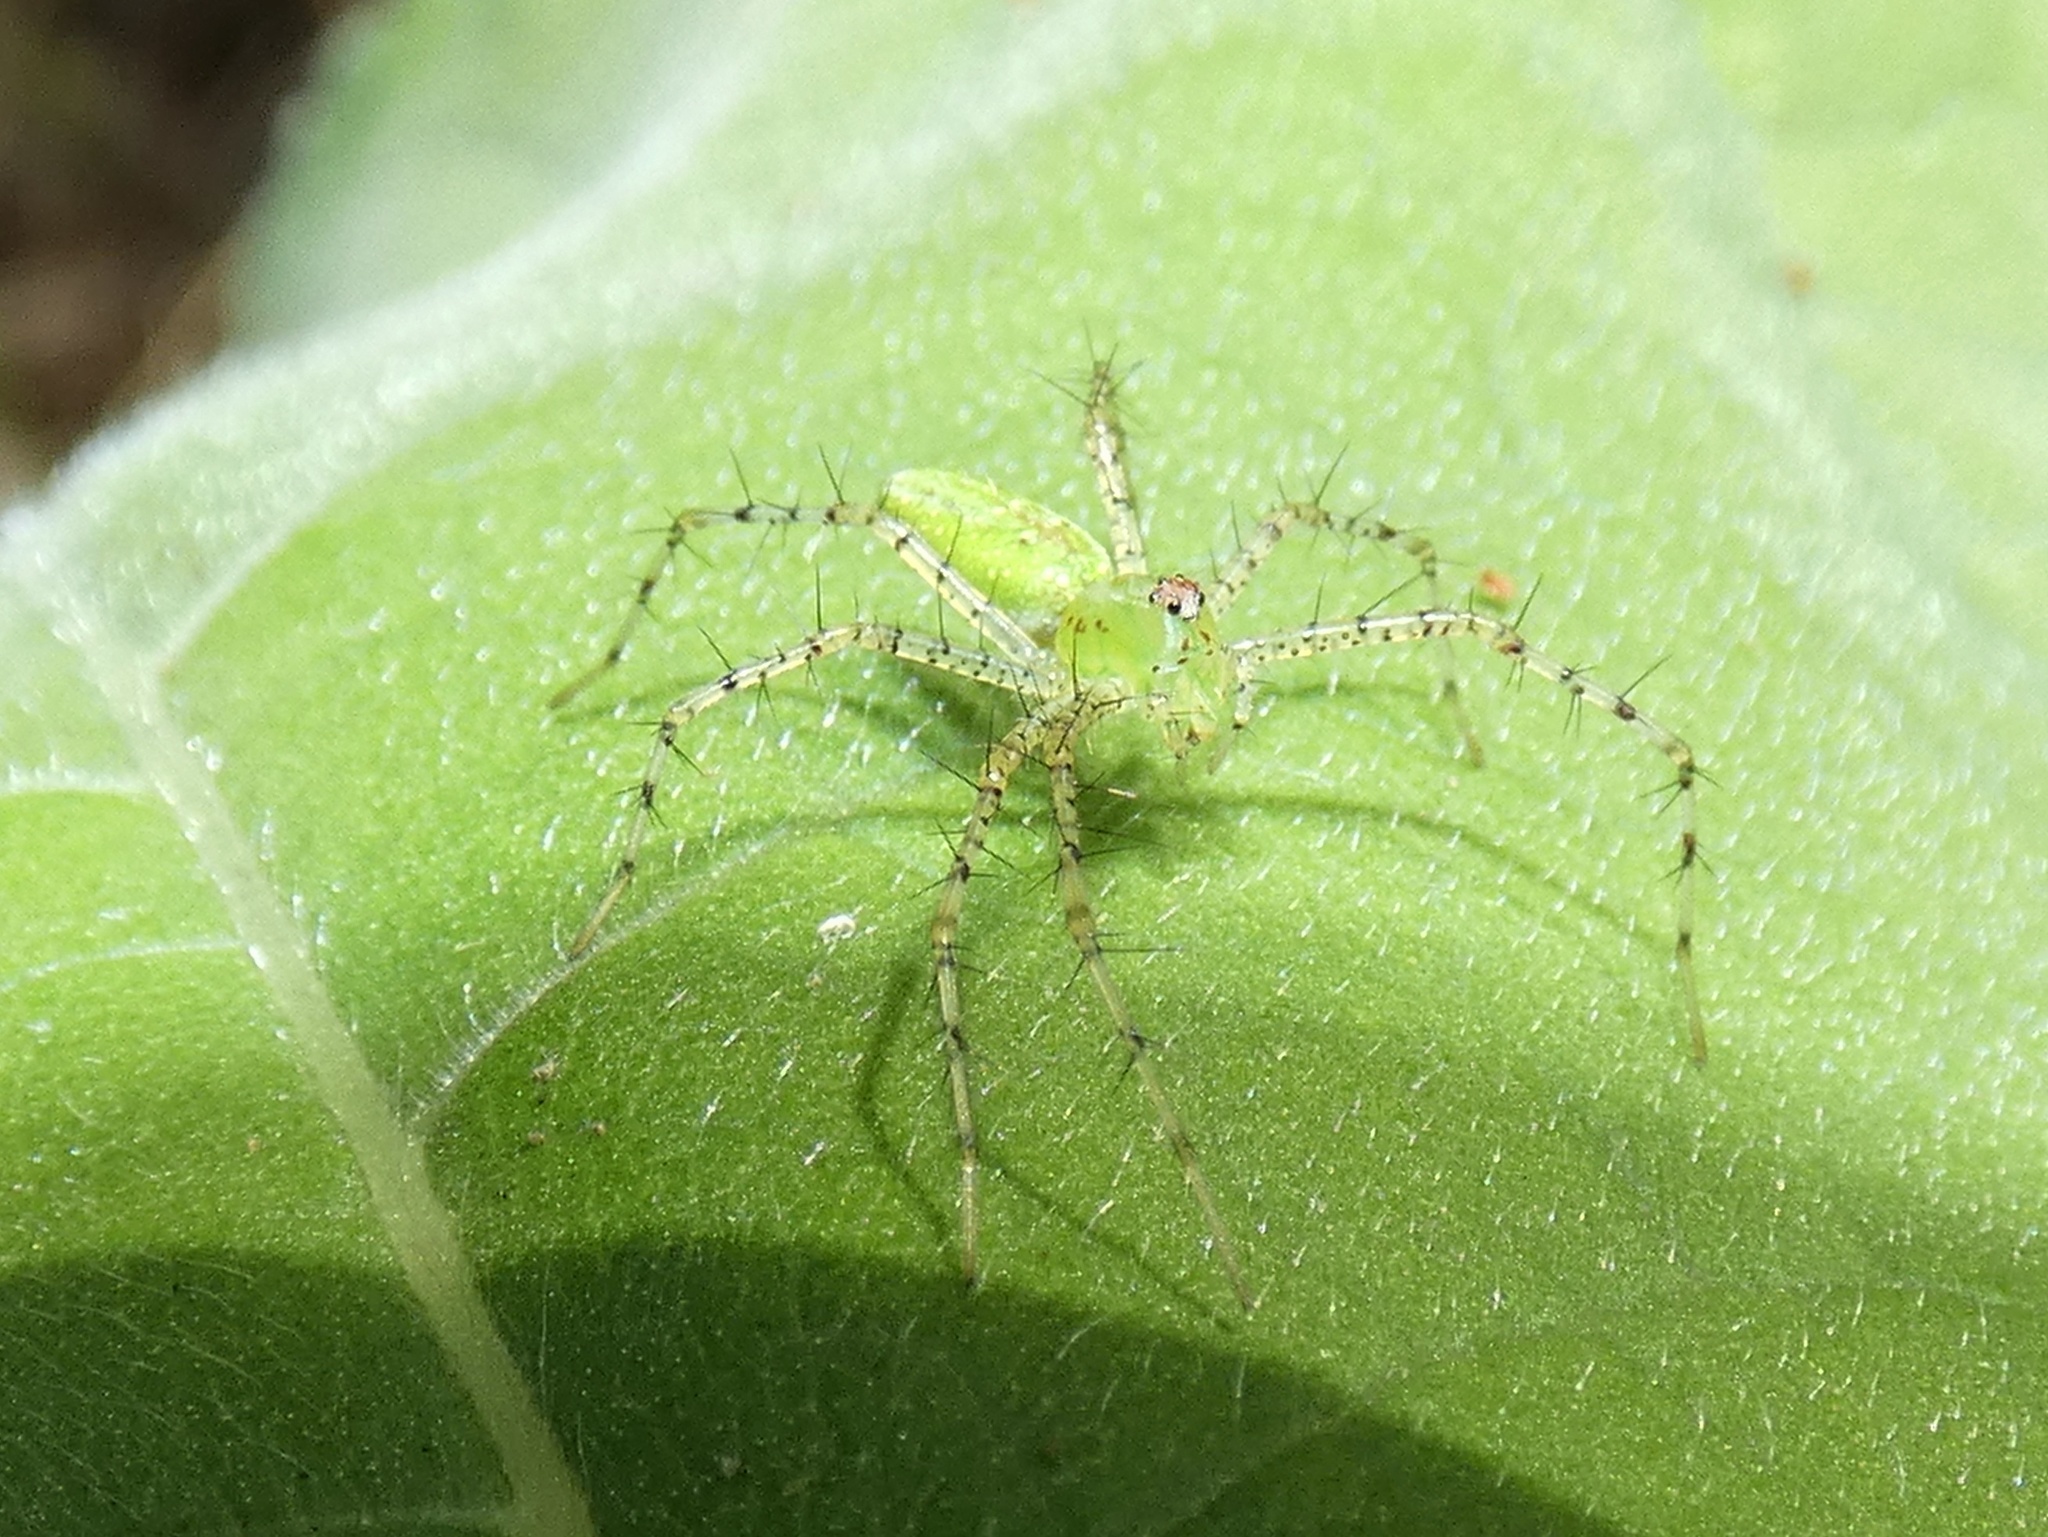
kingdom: Animalia
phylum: Arthropoda
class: Arachnida
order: Araneae
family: Oxyopidae
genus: Peucetia
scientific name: Peucetia viridans
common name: Lynx spiders
